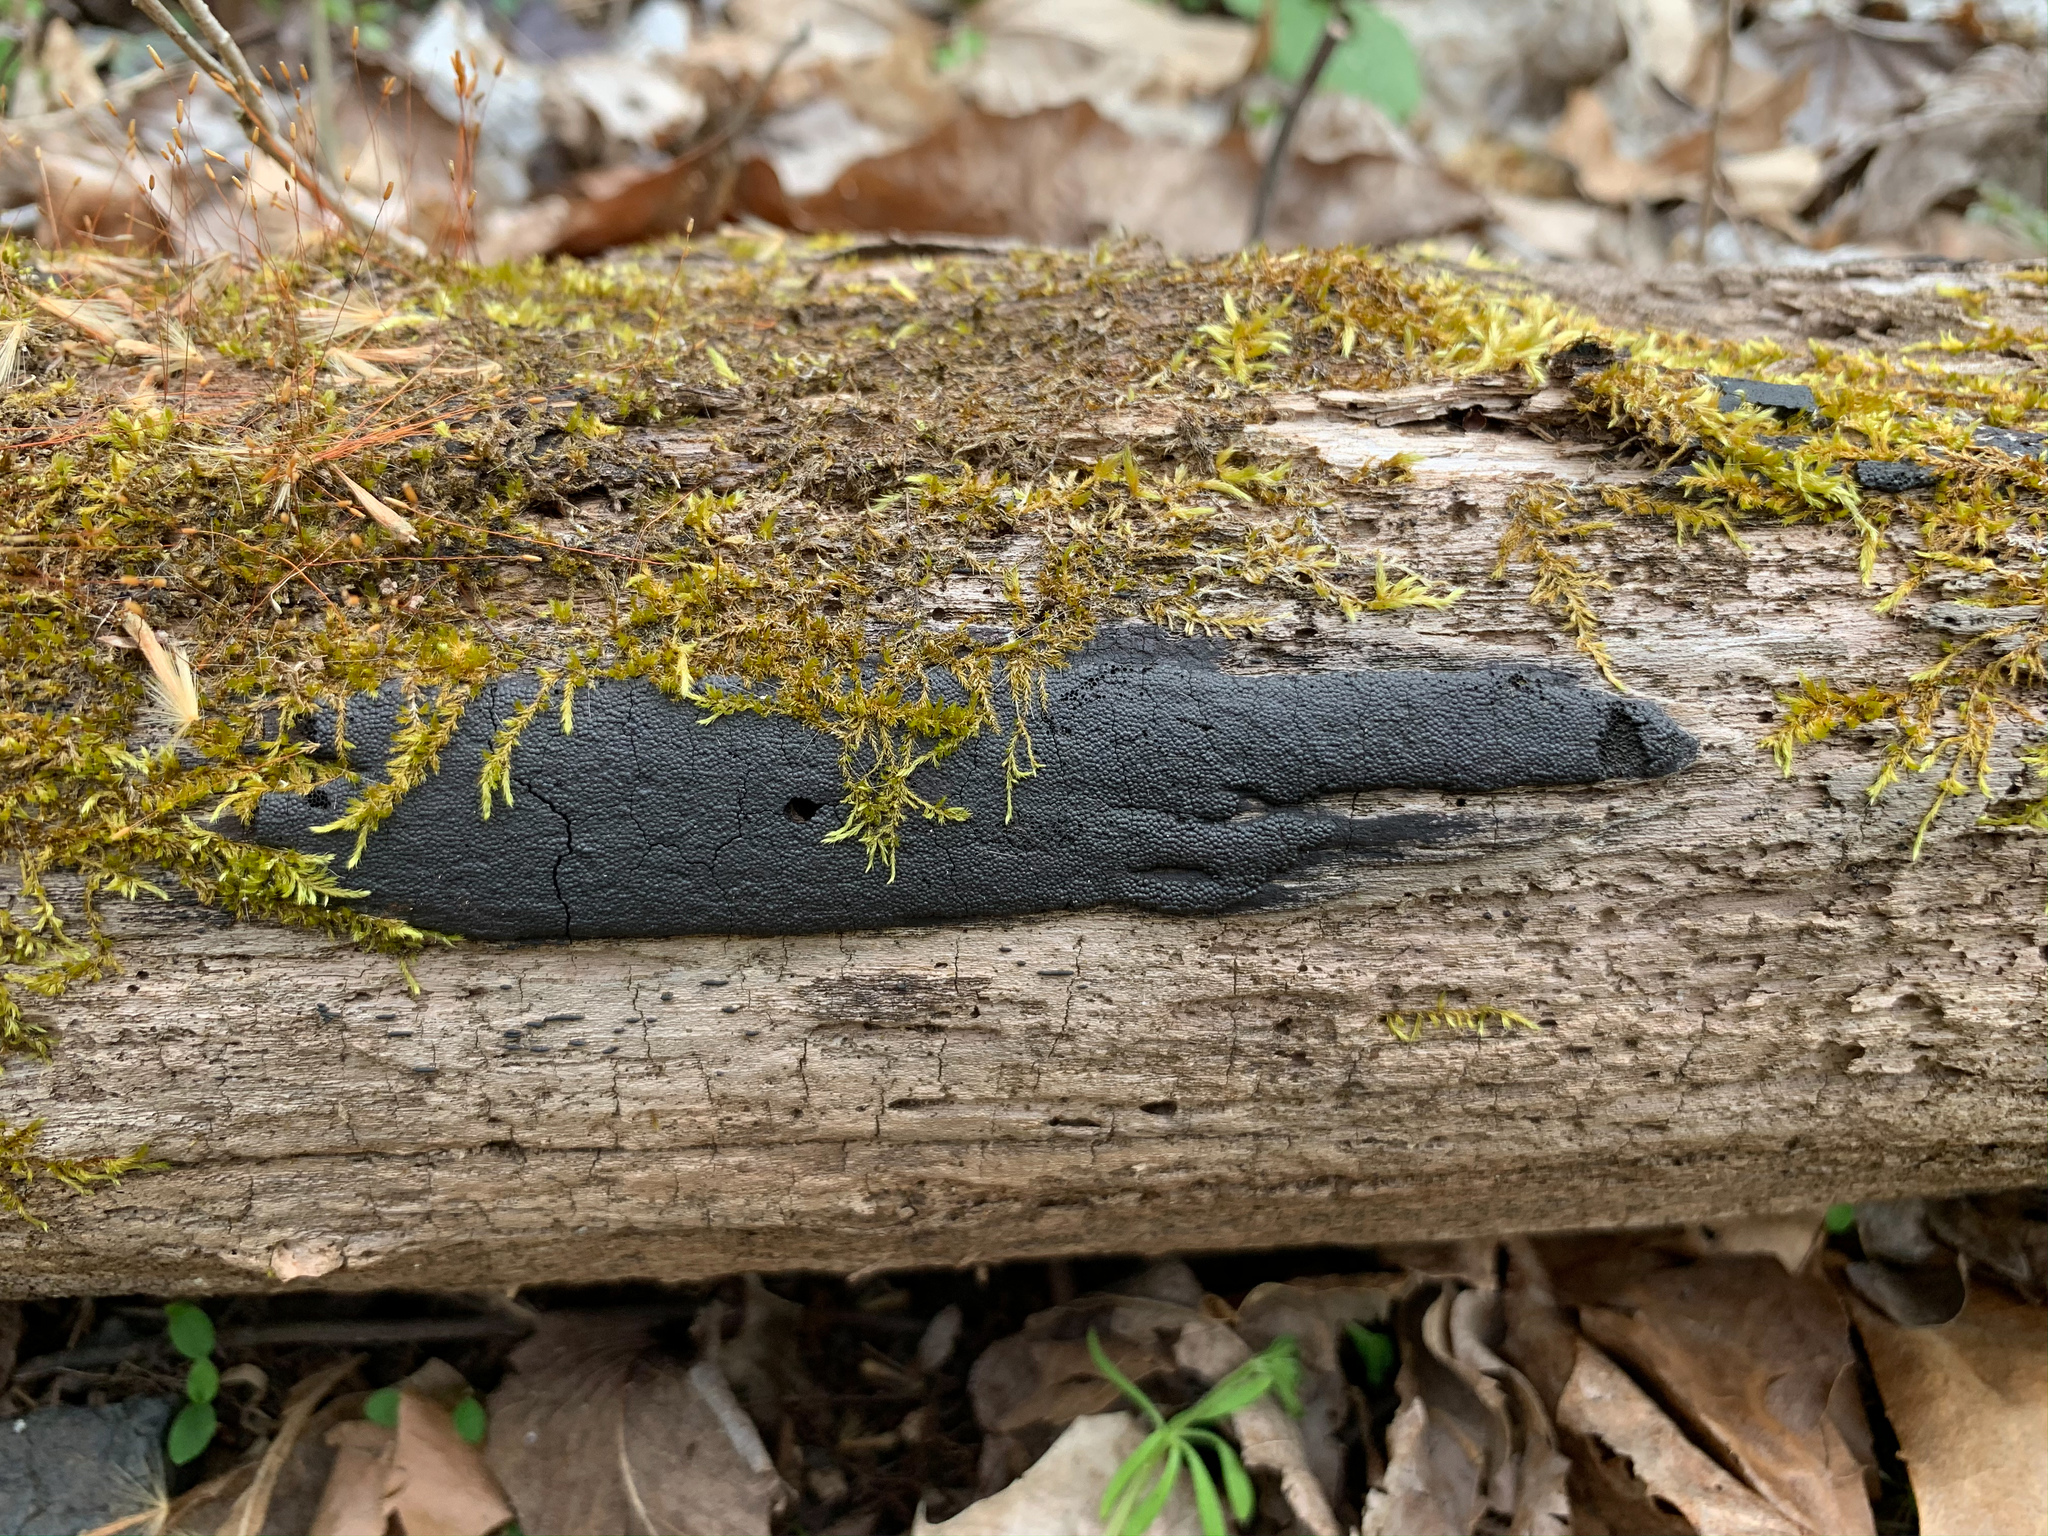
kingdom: Fungi
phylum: Ascomycota
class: Sordariomycetes
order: Xylariales
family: Diatrypaceae
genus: Diatrype
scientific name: Diatrype stigma
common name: Common tarcrust
